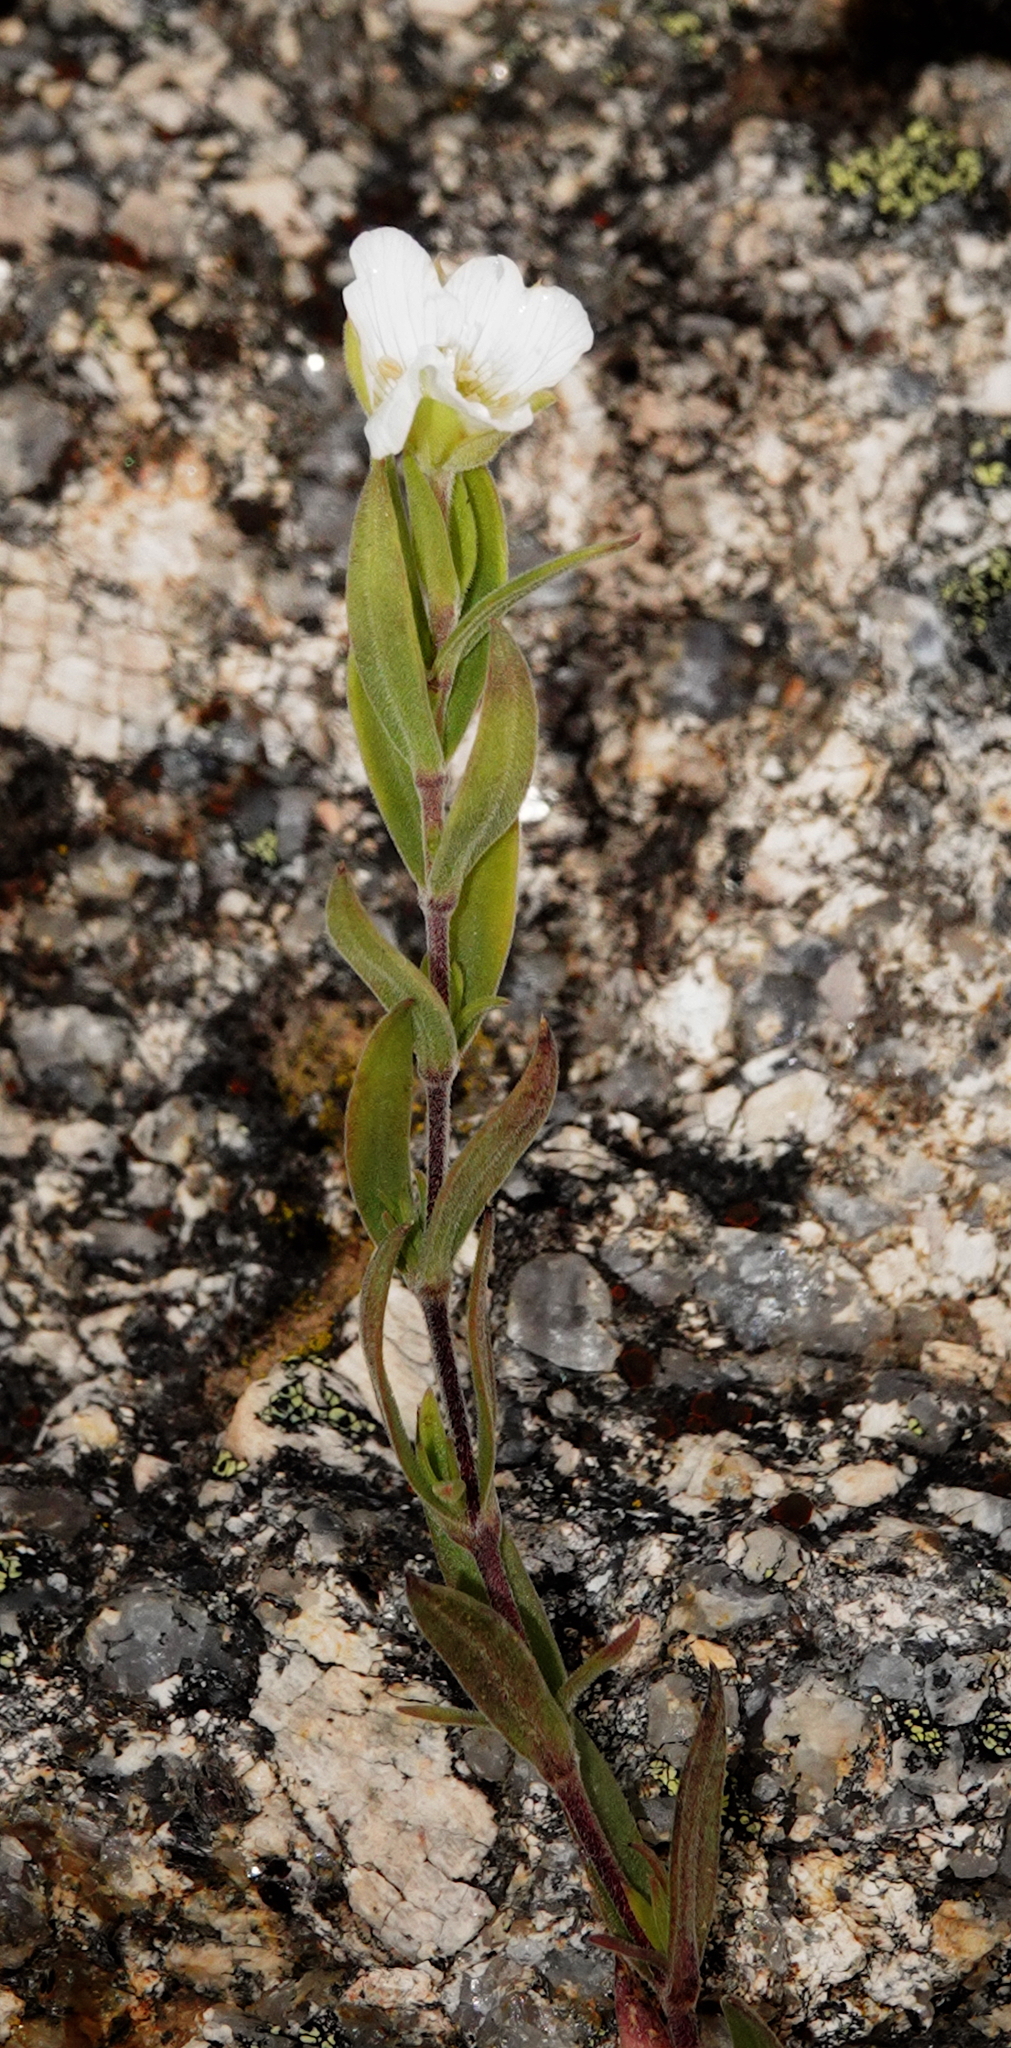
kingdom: Plantae
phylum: Tracheophyta
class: Magnoliopsida
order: Caryophyllales
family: Caryophyllaceae
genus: Arenaria
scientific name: Arenaria montana
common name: Mountain sandwort
